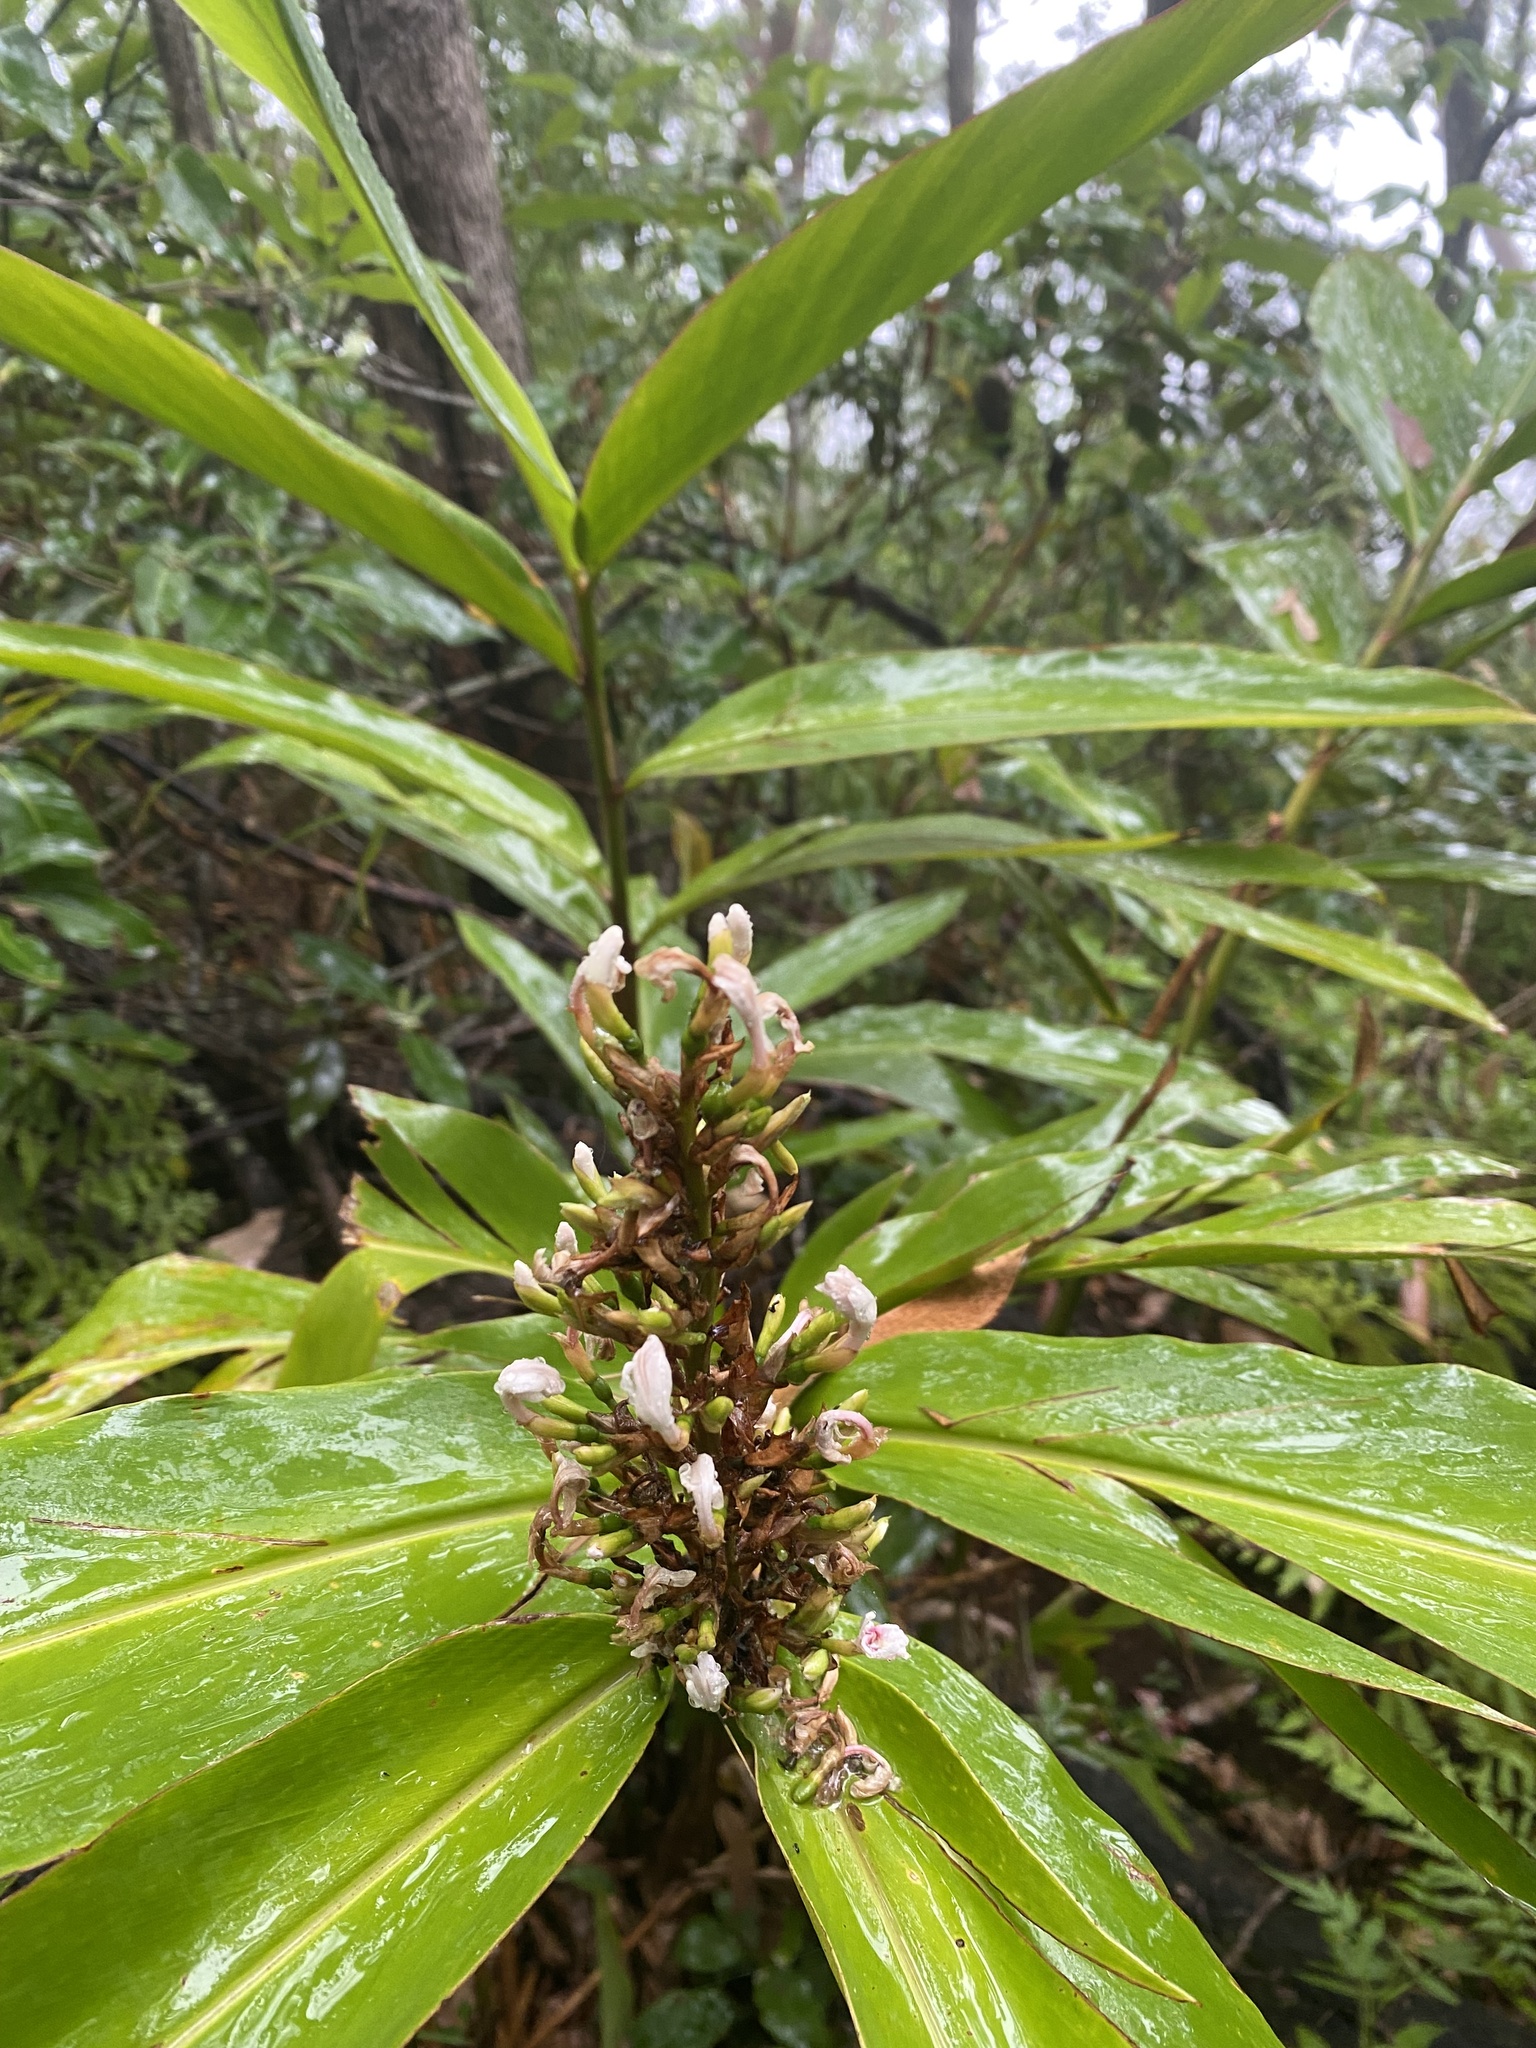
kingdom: Plantae
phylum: Tracheophyta
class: Liliopsida
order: Zingiberales
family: Zingiberaceae
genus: Alpinia
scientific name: Alpinia caerulea
